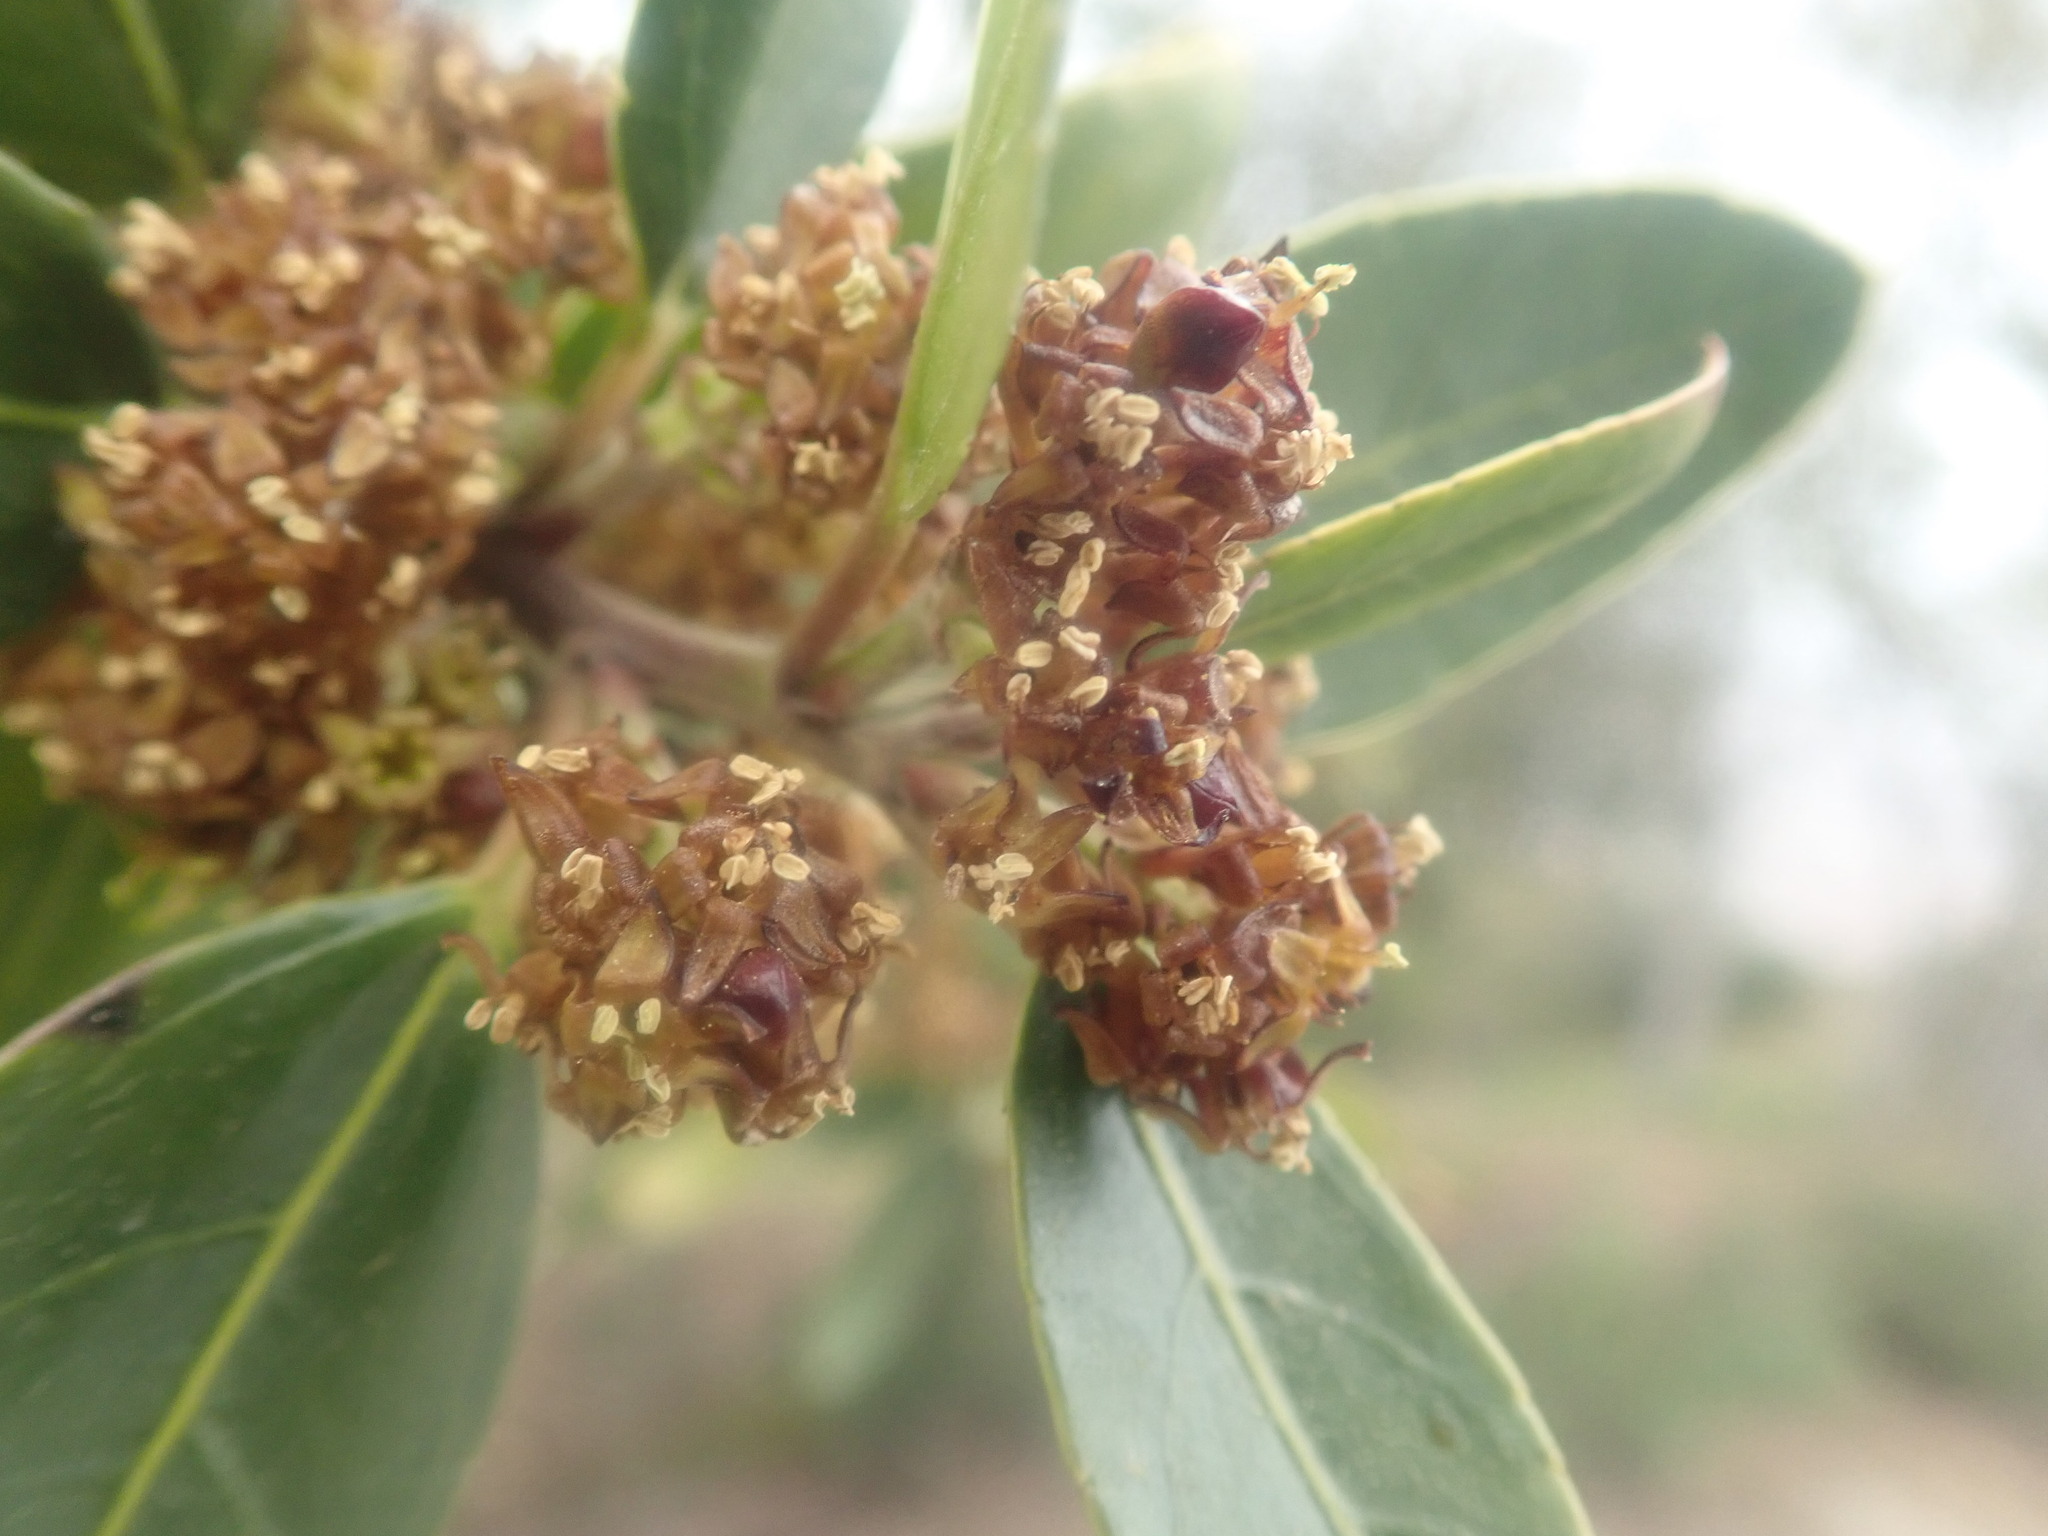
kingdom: Plantae
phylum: Tracheophyta
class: Magnoliopsida
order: Rosales
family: Rhamnaceae
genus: Rhamnus
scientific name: Rhamnus alaternus
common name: Mediterranean buckthorn
